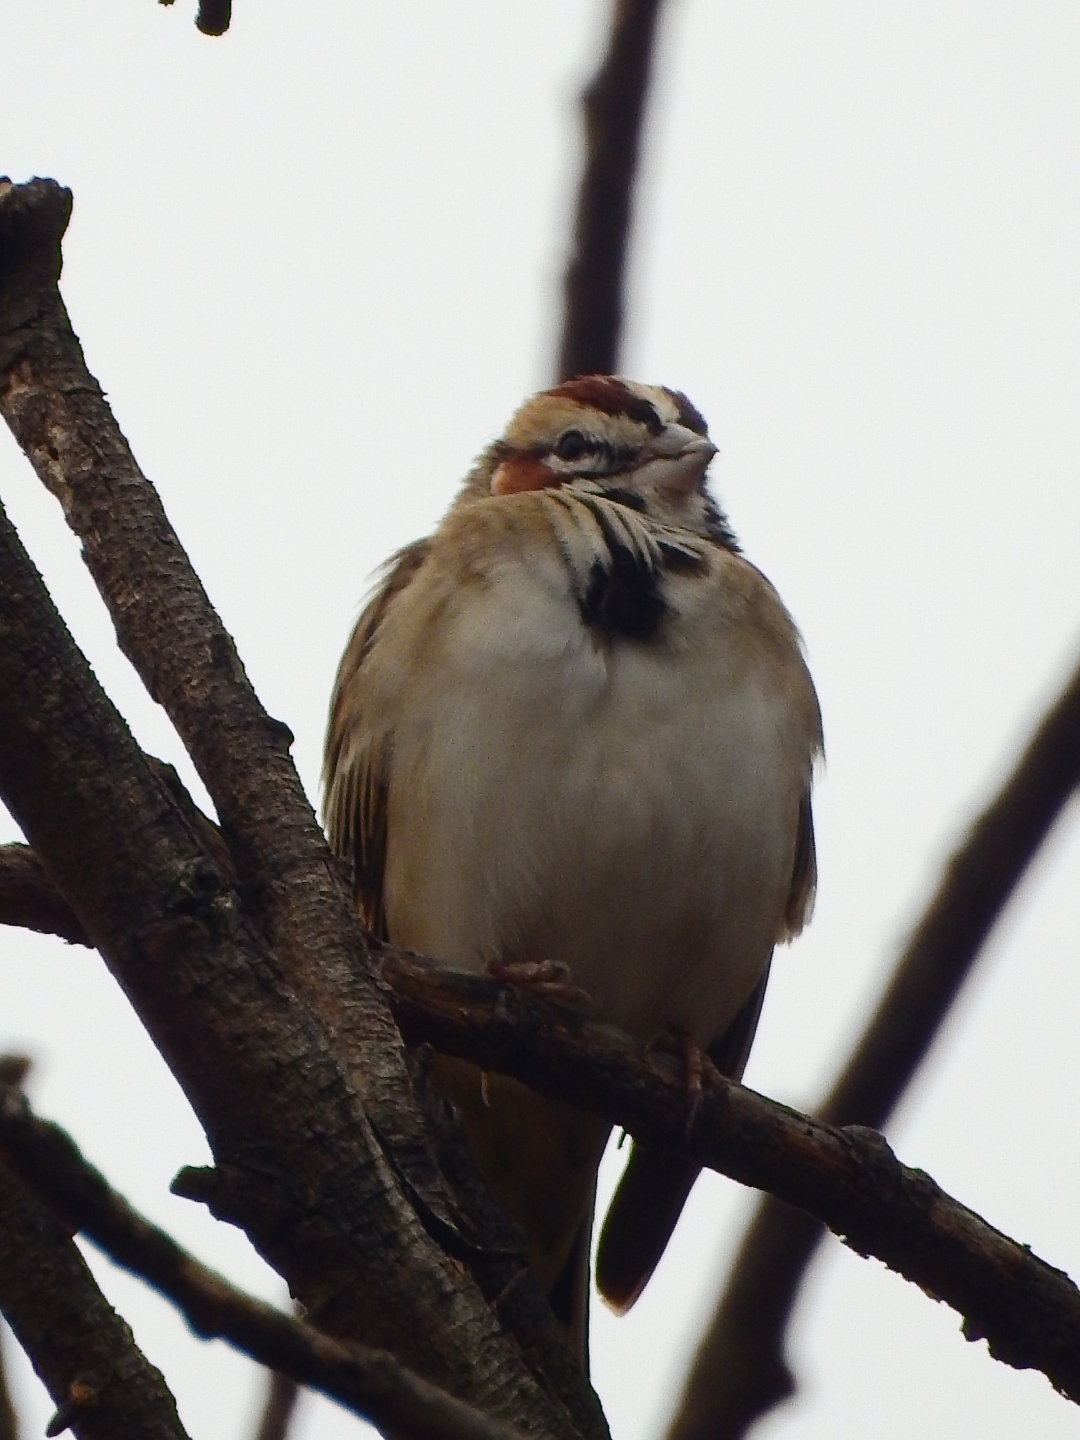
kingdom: Animalia
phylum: Chordata
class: Aves
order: Passeriformes
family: Passerellidae
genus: Chondestes
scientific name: Chondestes grammacus
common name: Lark sparrow
